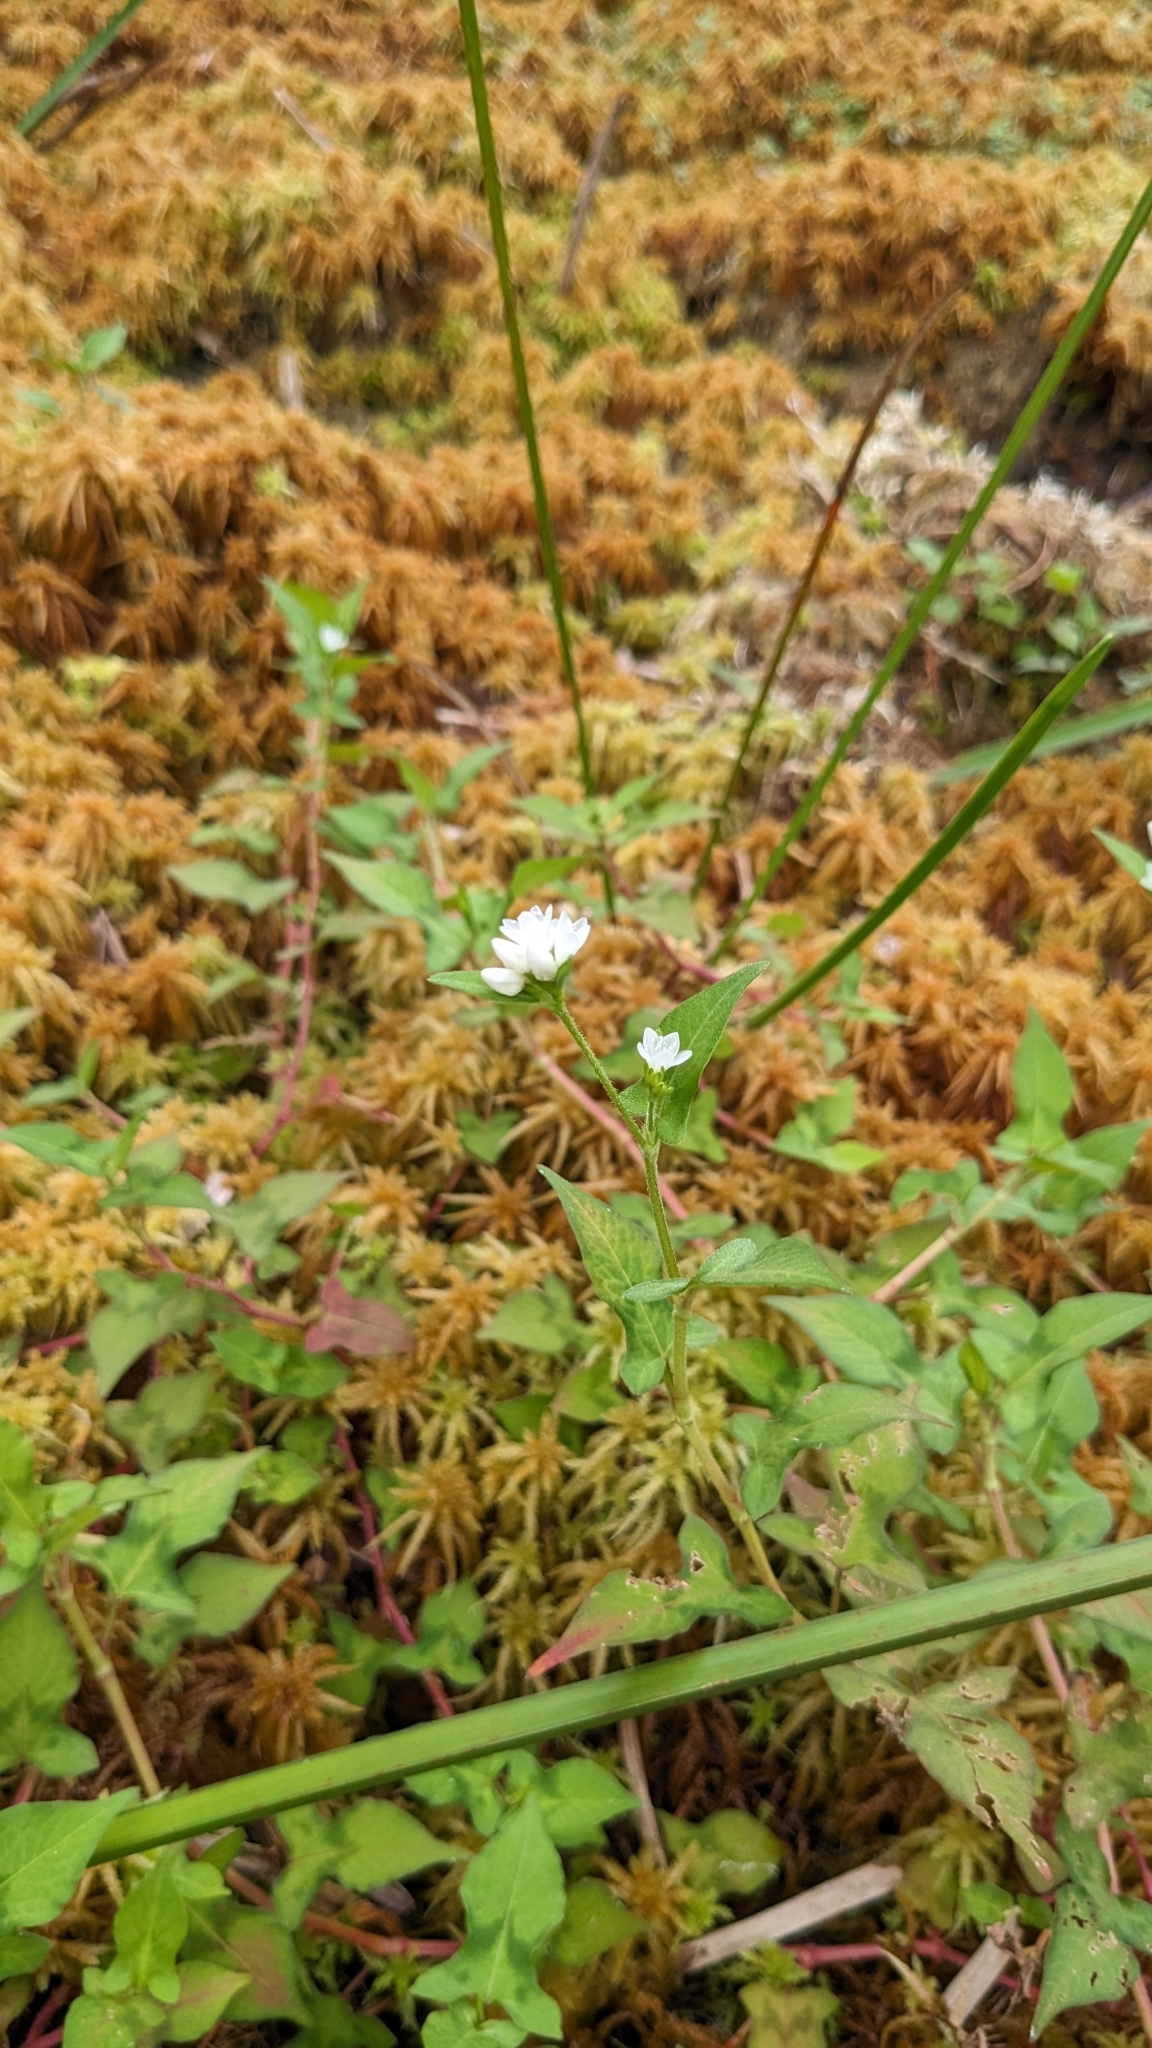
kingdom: Plantae
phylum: Tracheophyta
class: Magnoliopsida
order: Caryophyllales
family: Polygonaceae
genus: Persicaria
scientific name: Persicaria biconvexa
